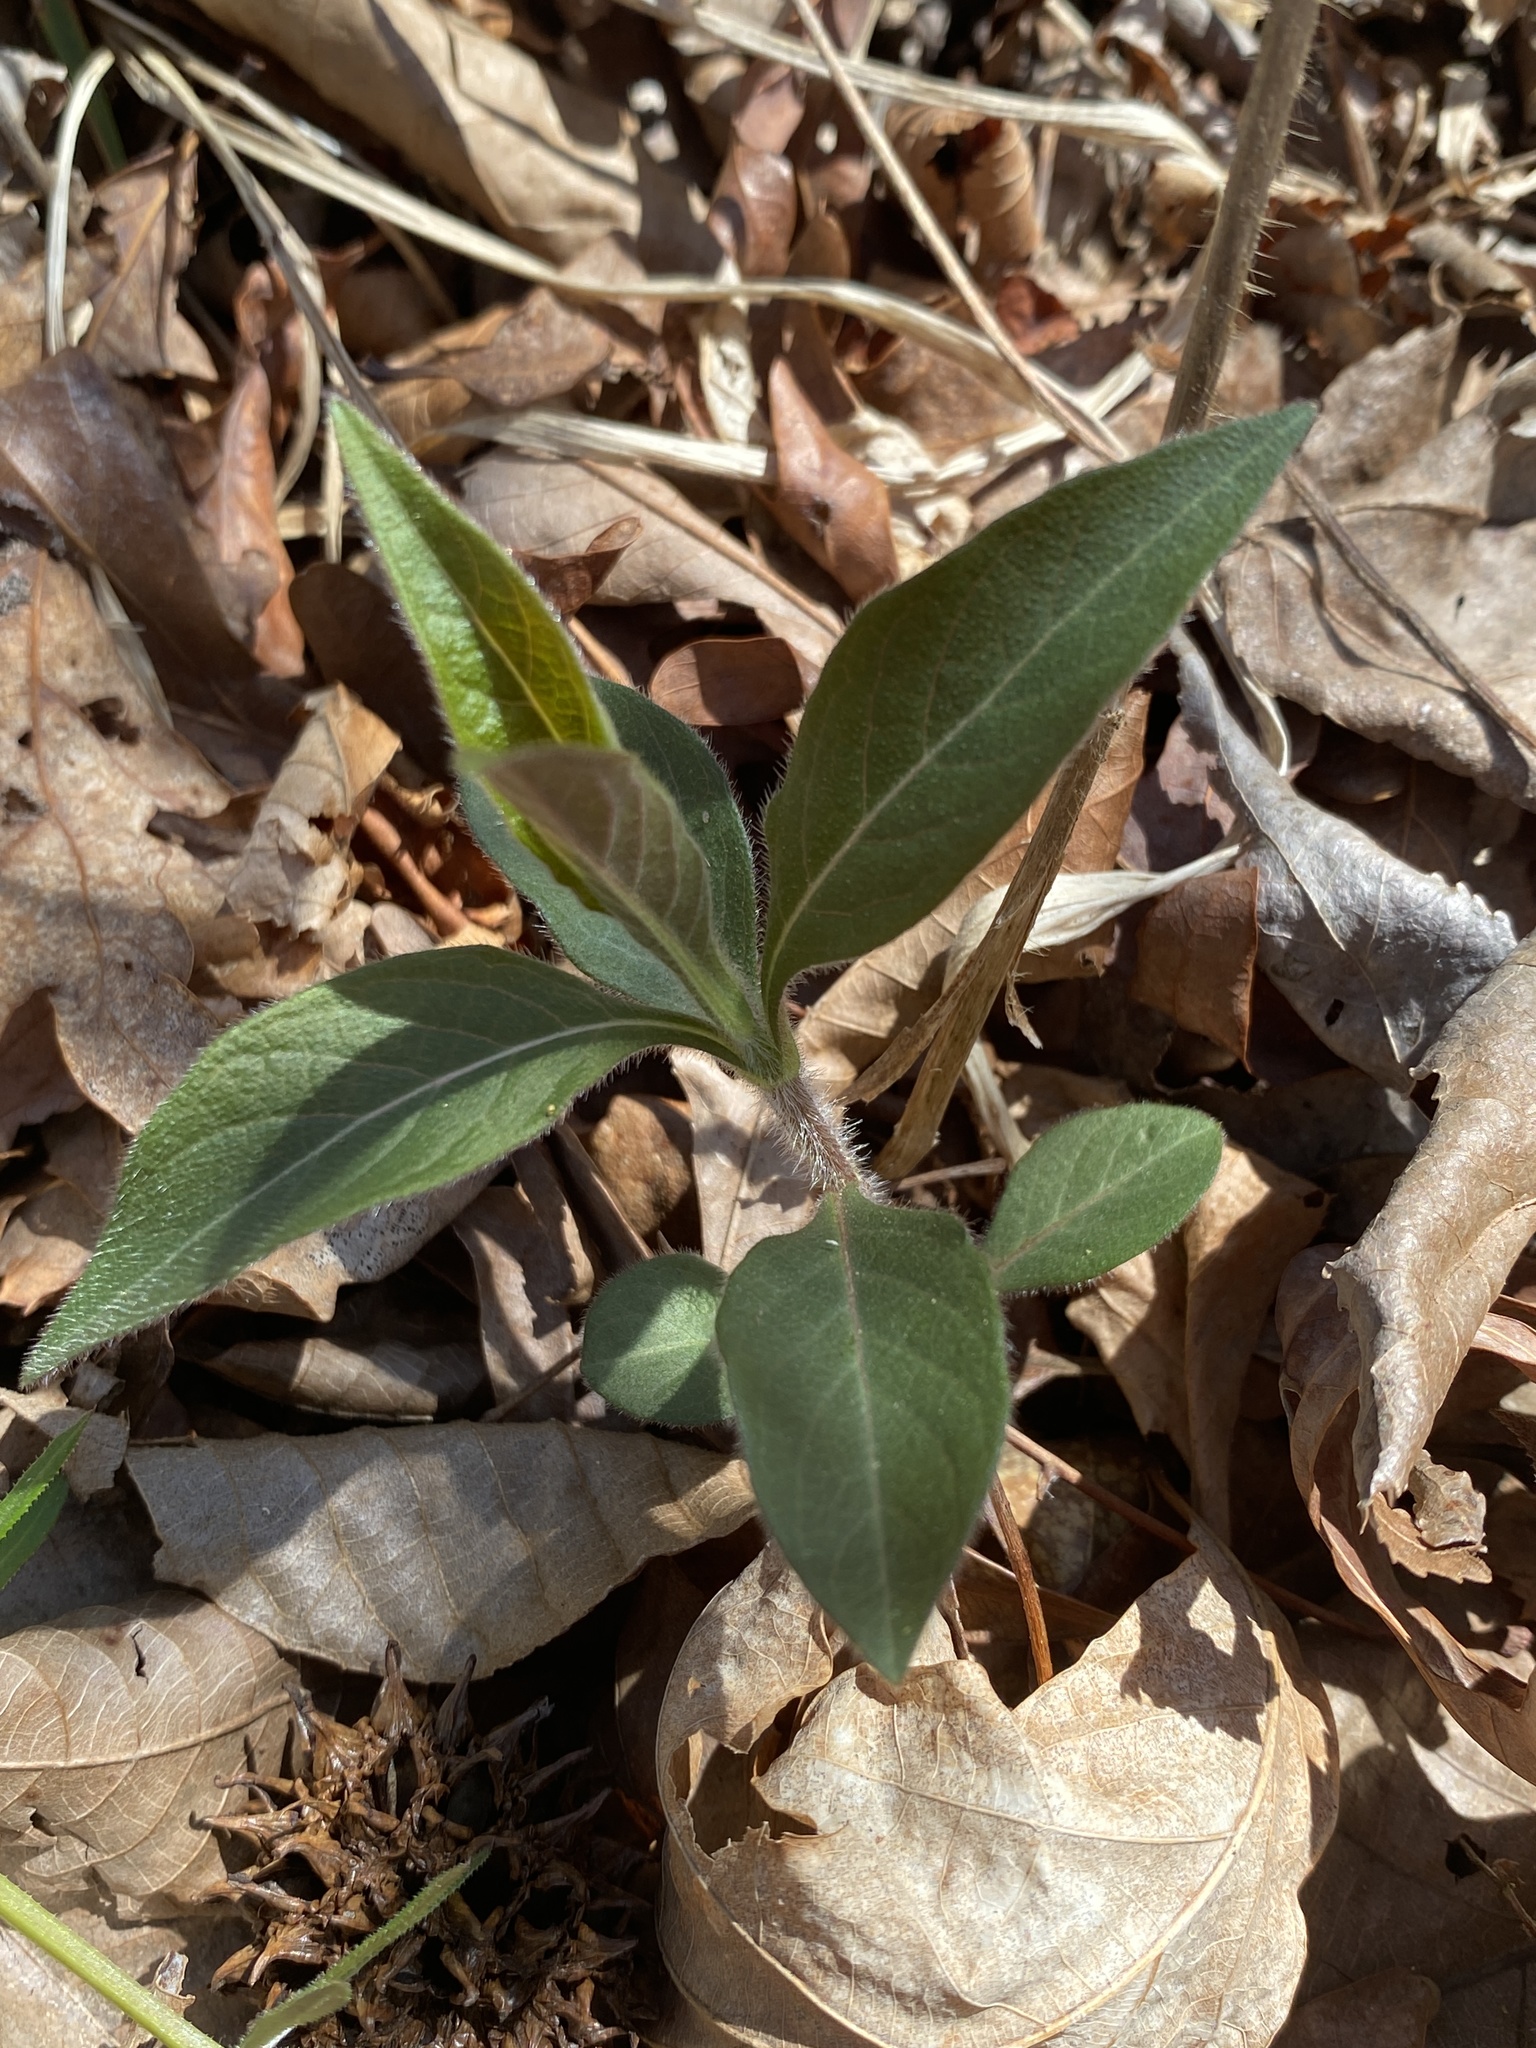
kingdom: Plantae
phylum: Tracheophyta
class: Magnoliopsida
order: Dipsacales
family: Caprifoliaceae
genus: Triosteum
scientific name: Triosteum angustifolium
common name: Narrow-leaved horse-gentian
